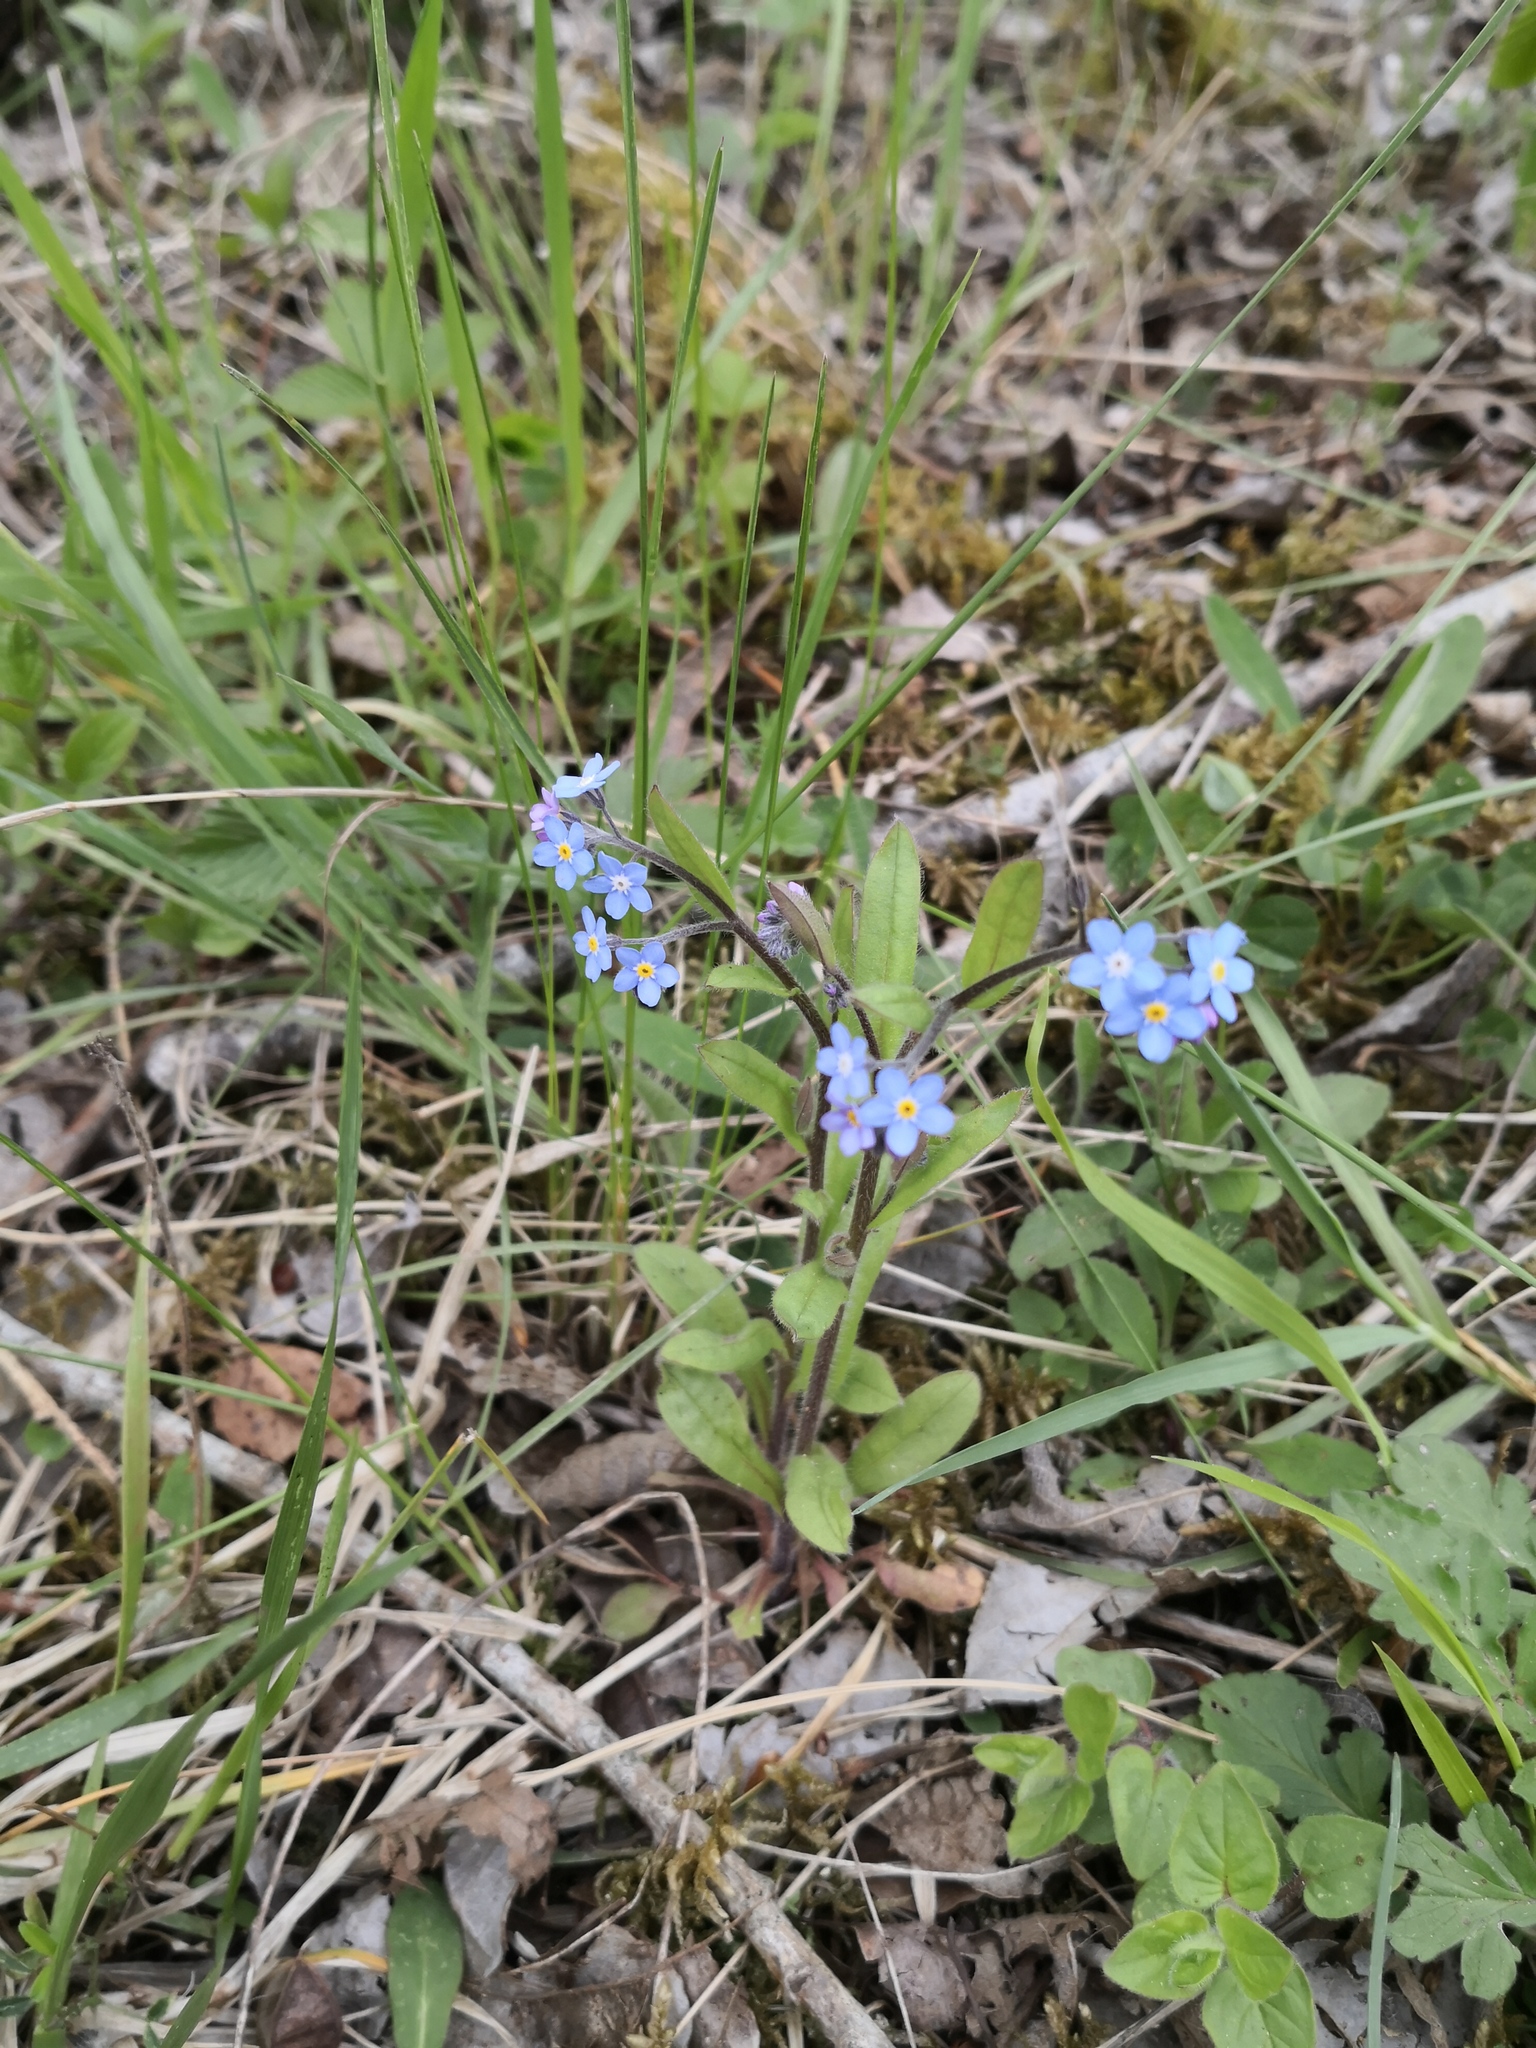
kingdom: Plantae
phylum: Tracheophyta
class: Magnoliopsida
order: Boraginales
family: Boraginaceae
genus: Myosotis
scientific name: Myosotis sylvatica
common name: Wood forget-me-not
